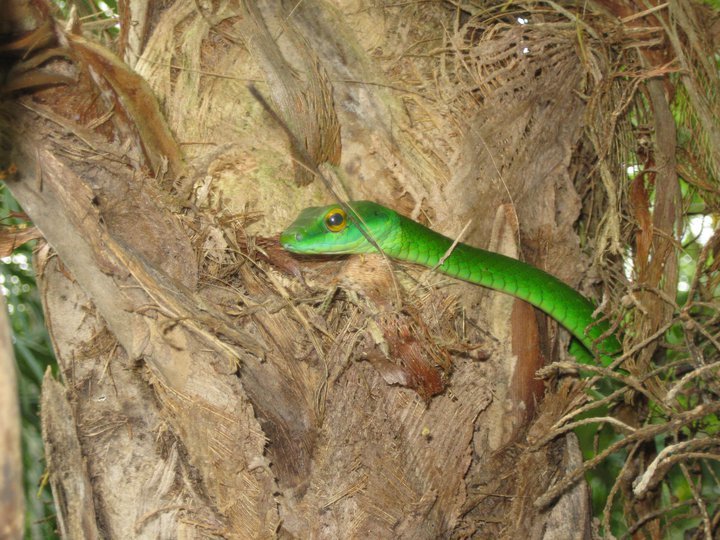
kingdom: Animalia
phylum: Chordata
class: Squamata
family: Colubridae
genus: Leptophis
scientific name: Leptophis ahaetulla
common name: Parrot snake
